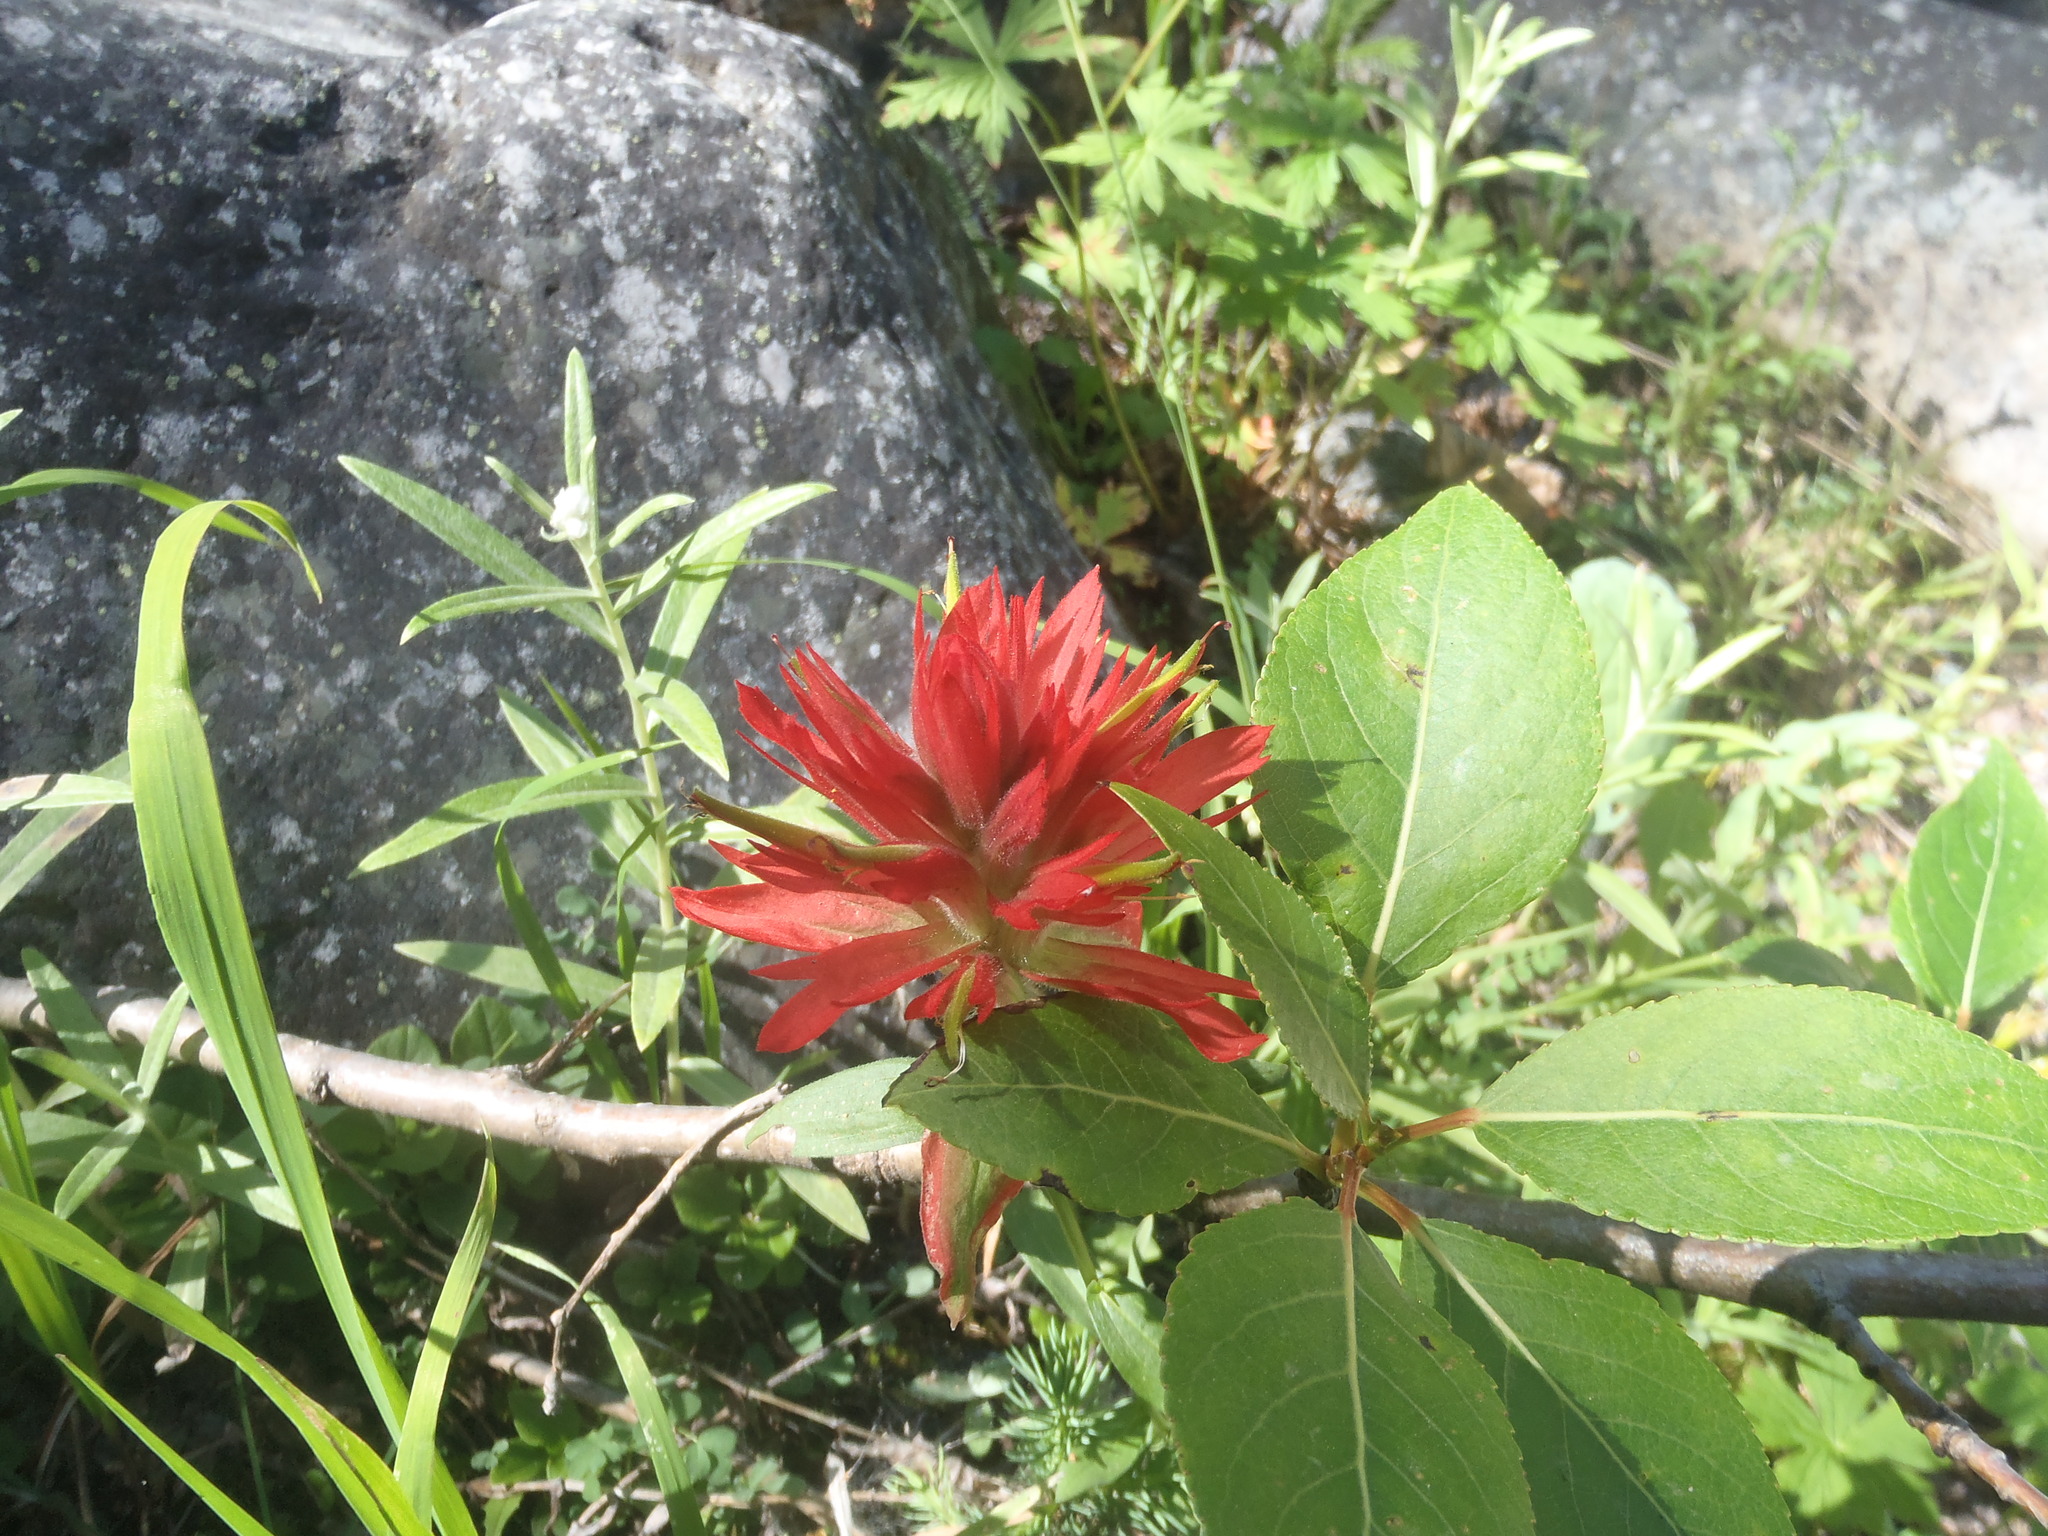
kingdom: Plantae
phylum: Tracheophyta
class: Magnoliopsida
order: Lamiales
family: Orobanchaceae
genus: Castilleja
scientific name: Castilleja miniata
